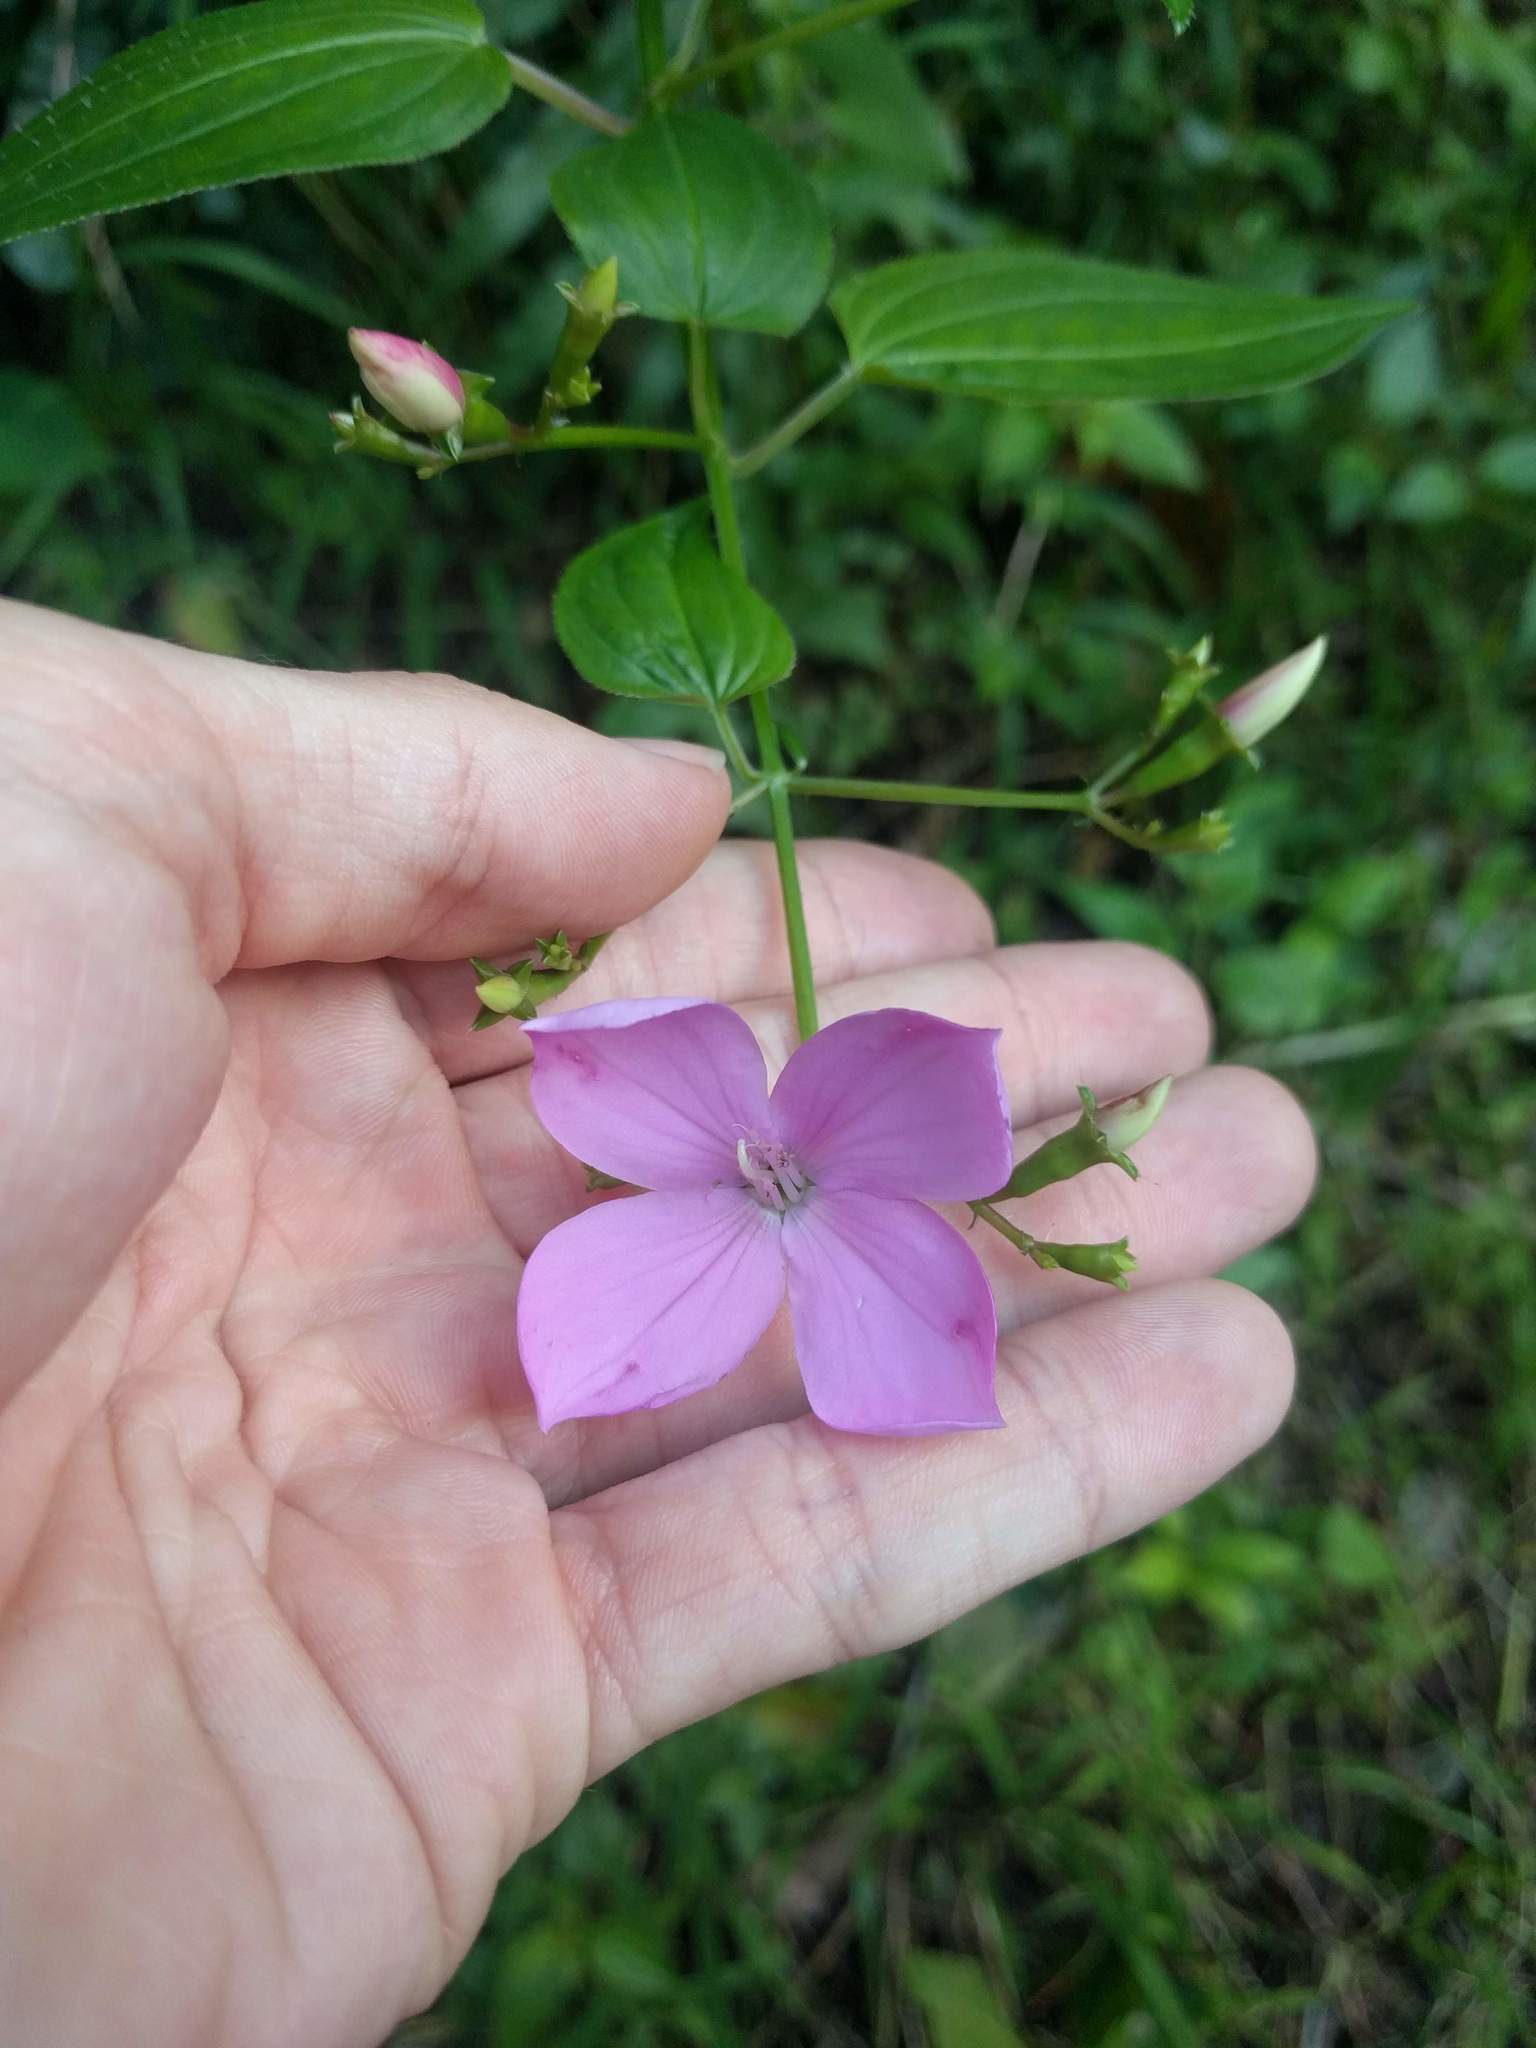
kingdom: Plantae
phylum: Tracheophyta
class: Magnoliopsida
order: Myrtales
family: Melastomataceae
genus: Arthrostemma
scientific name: Arthrostemma ciliatum
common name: Everblooming eavender
